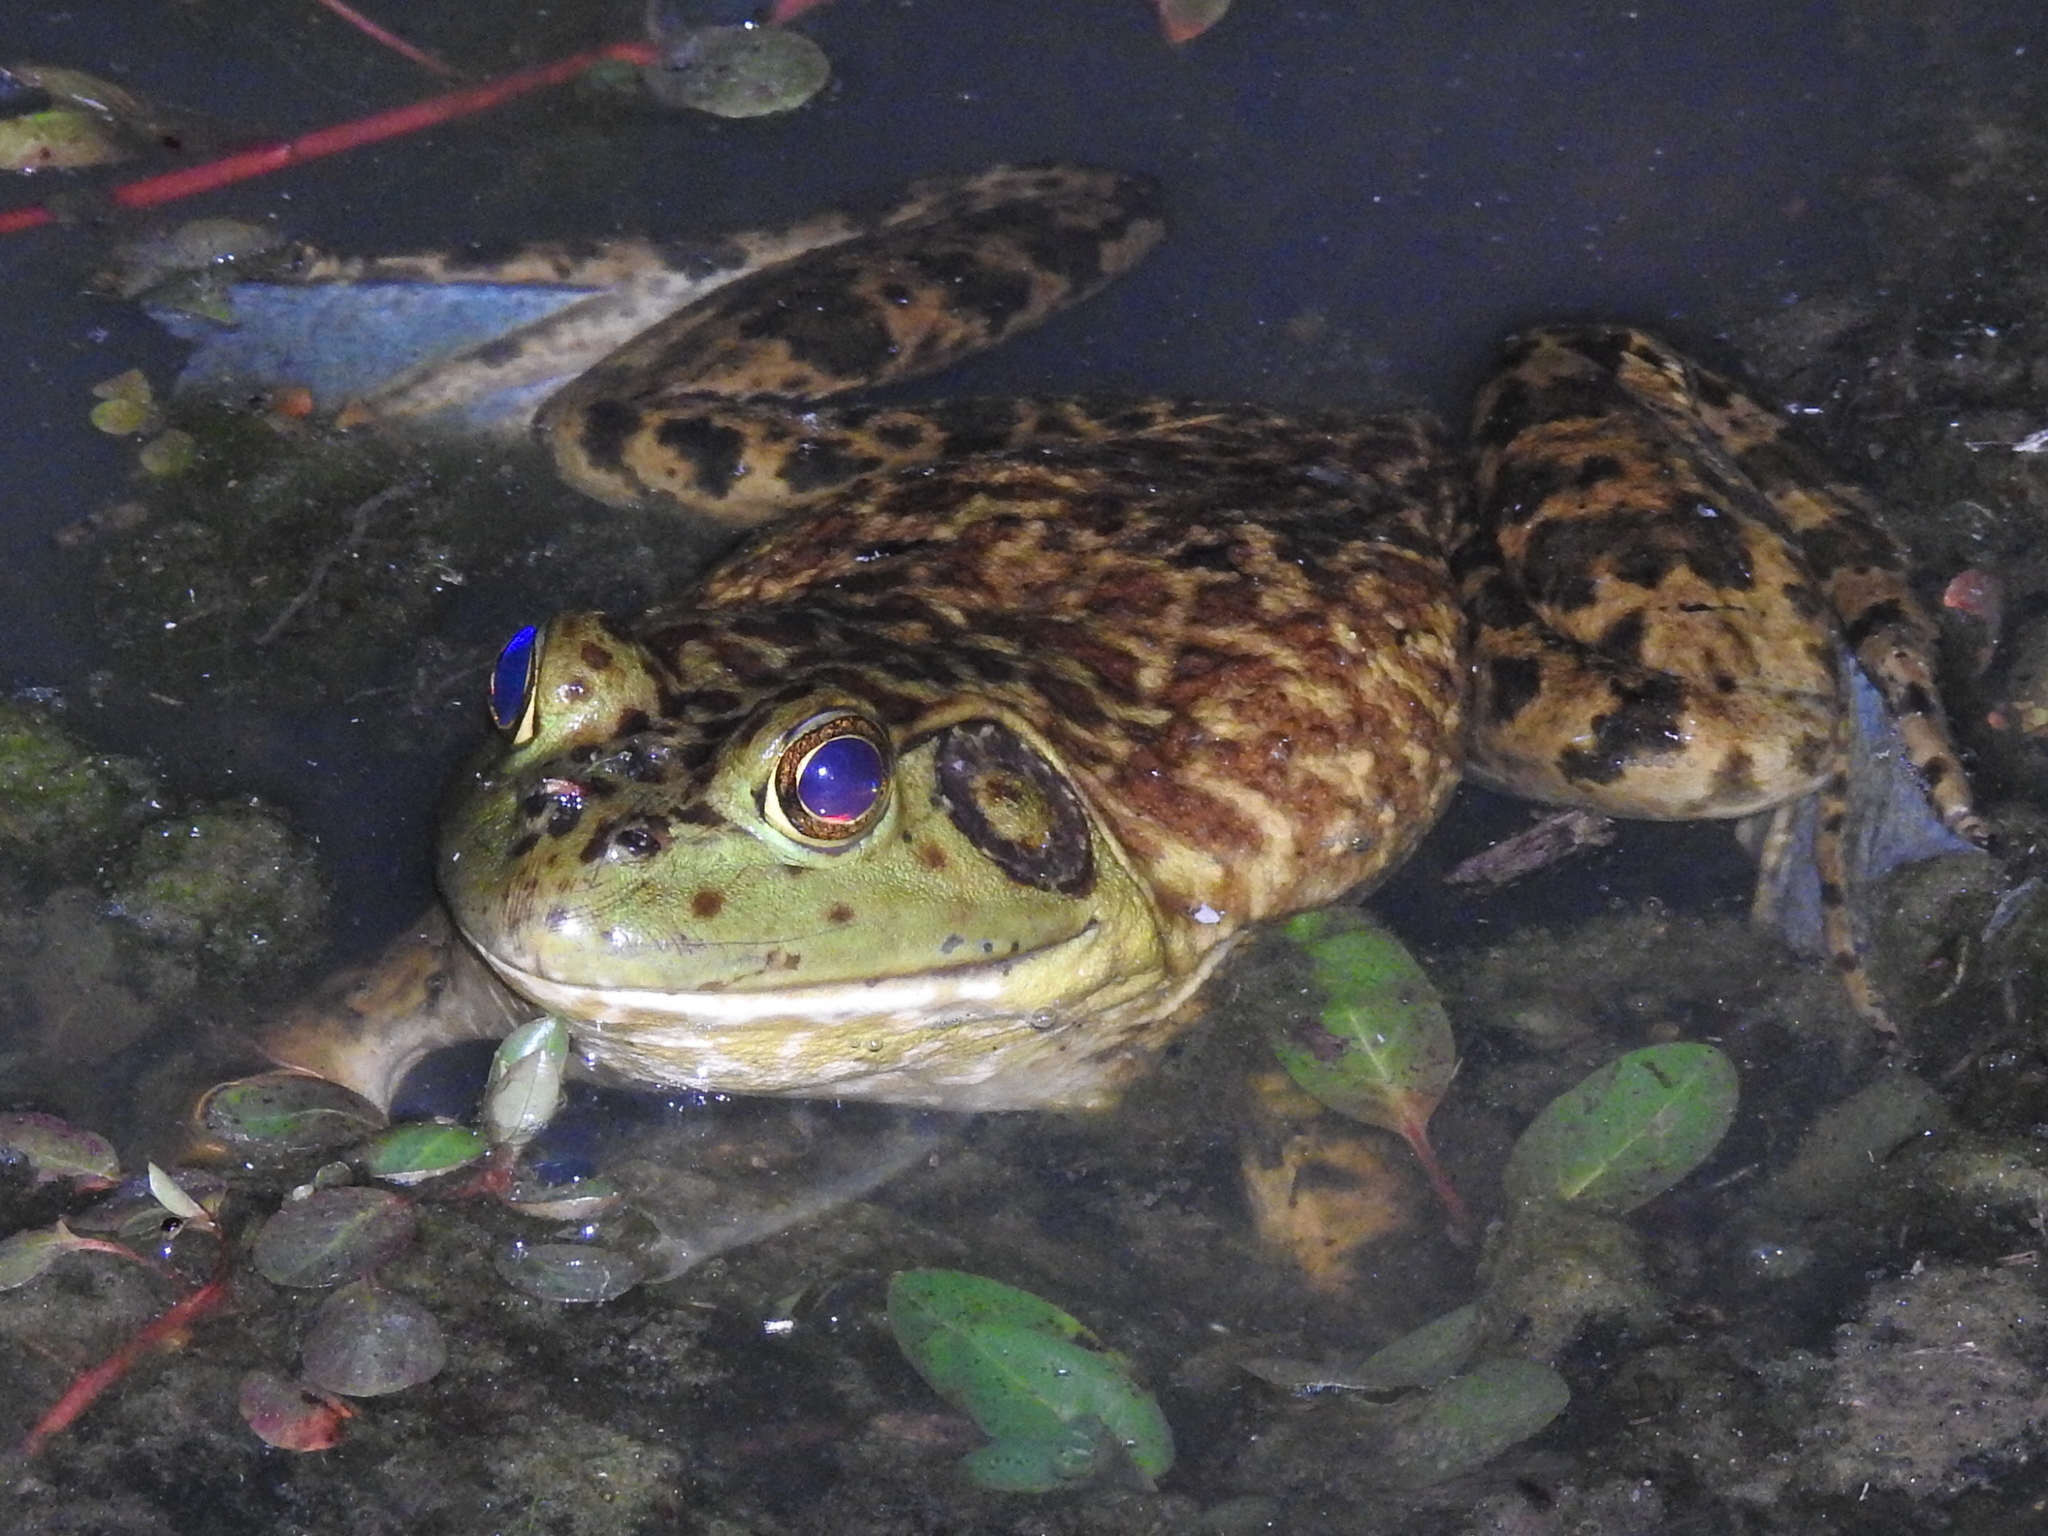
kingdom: Animalia
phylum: Chordata
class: Amphibia
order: Anura
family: Ranidae
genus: Lithobates
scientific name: Lithobates catesbeianus
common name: American bullfrog
